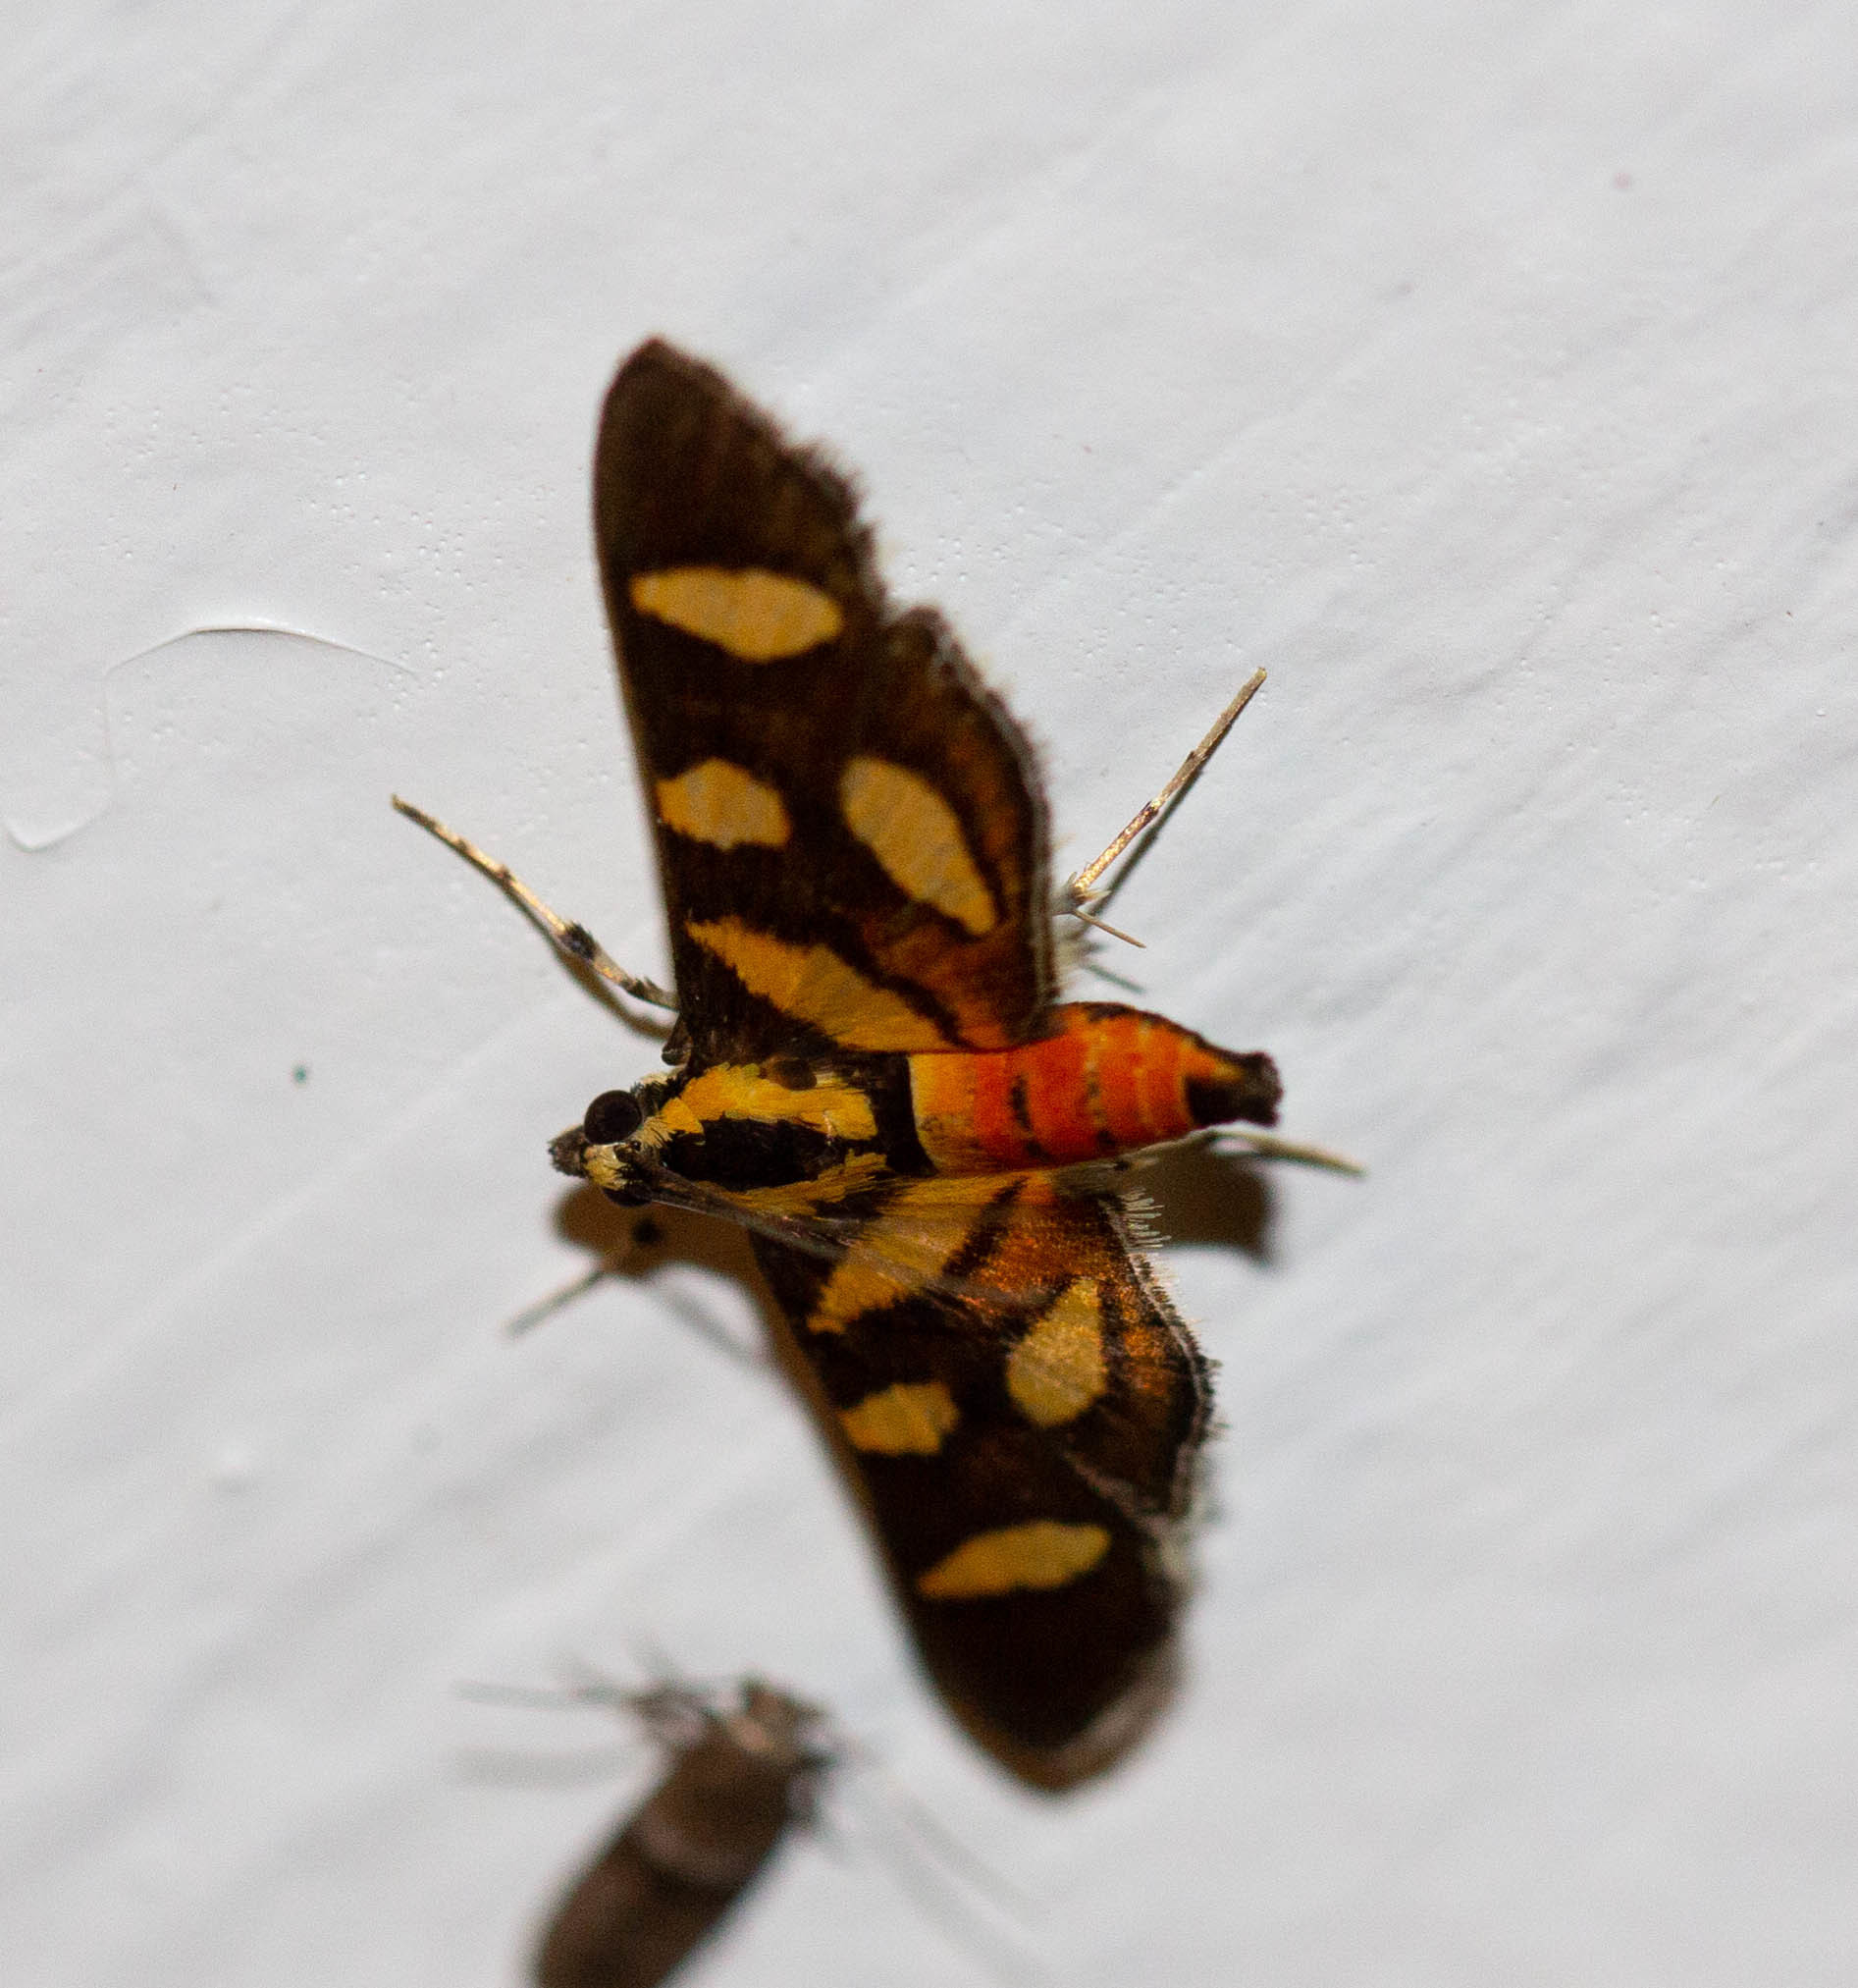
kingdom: Animalia
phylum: Arthropoda
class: Insecta
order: Lepidoptera
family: Crambidae
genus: Syngamia
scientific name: Syngamia florella
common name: Orange-spotted flower moth
